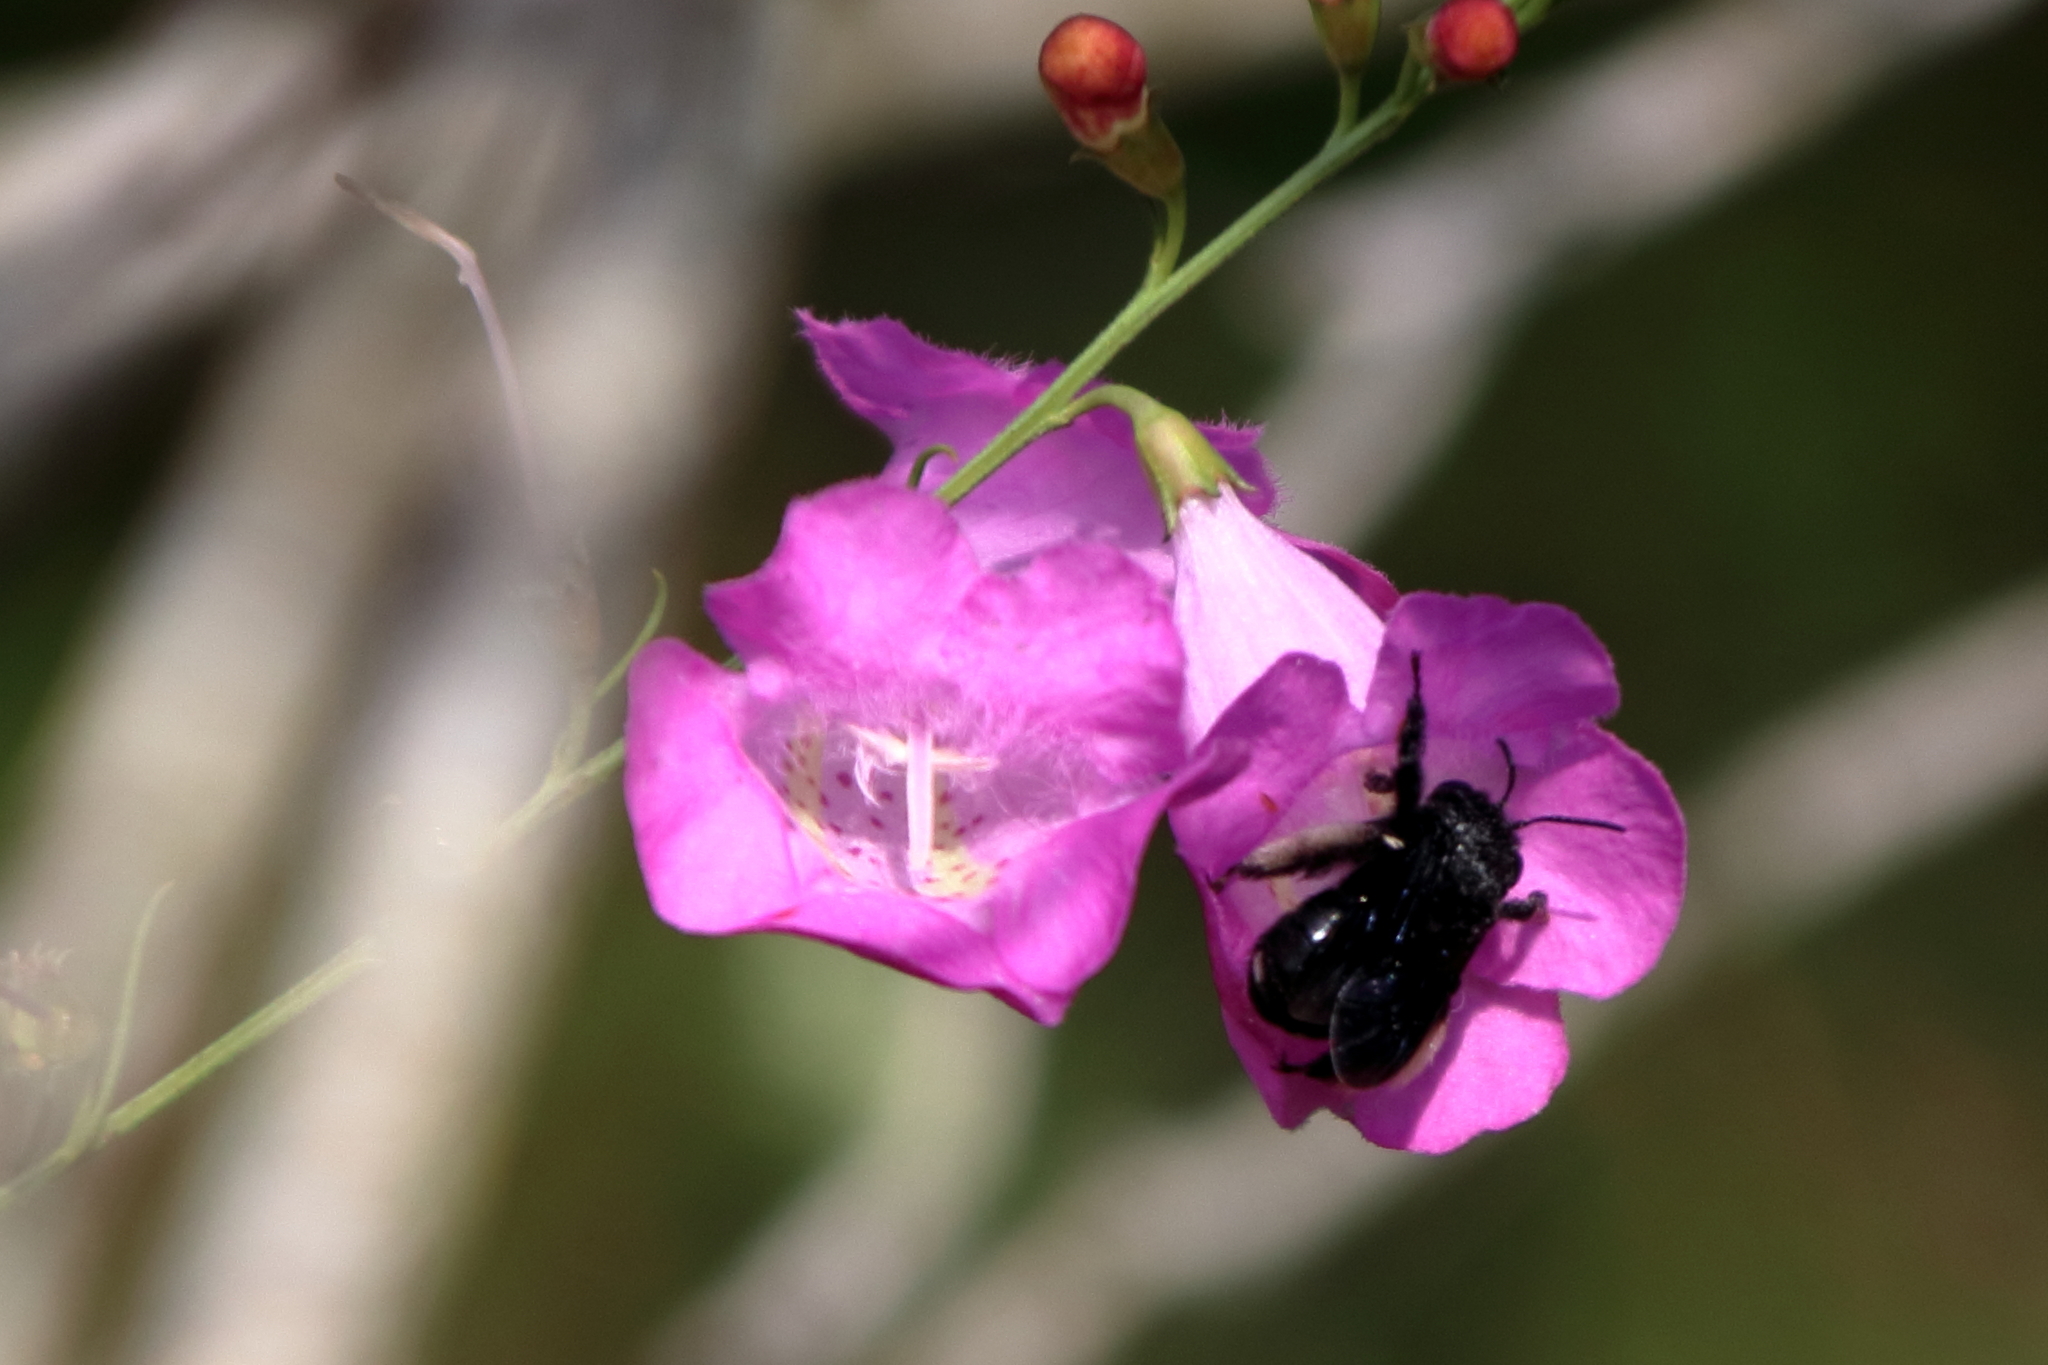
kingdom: Animalia
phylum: Arthropoda
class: Insecta
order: Hymenoptera
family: Apidae
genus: Melissodes
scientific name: Melissodes bimaculatus
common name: Two-spotted long-horned bee
